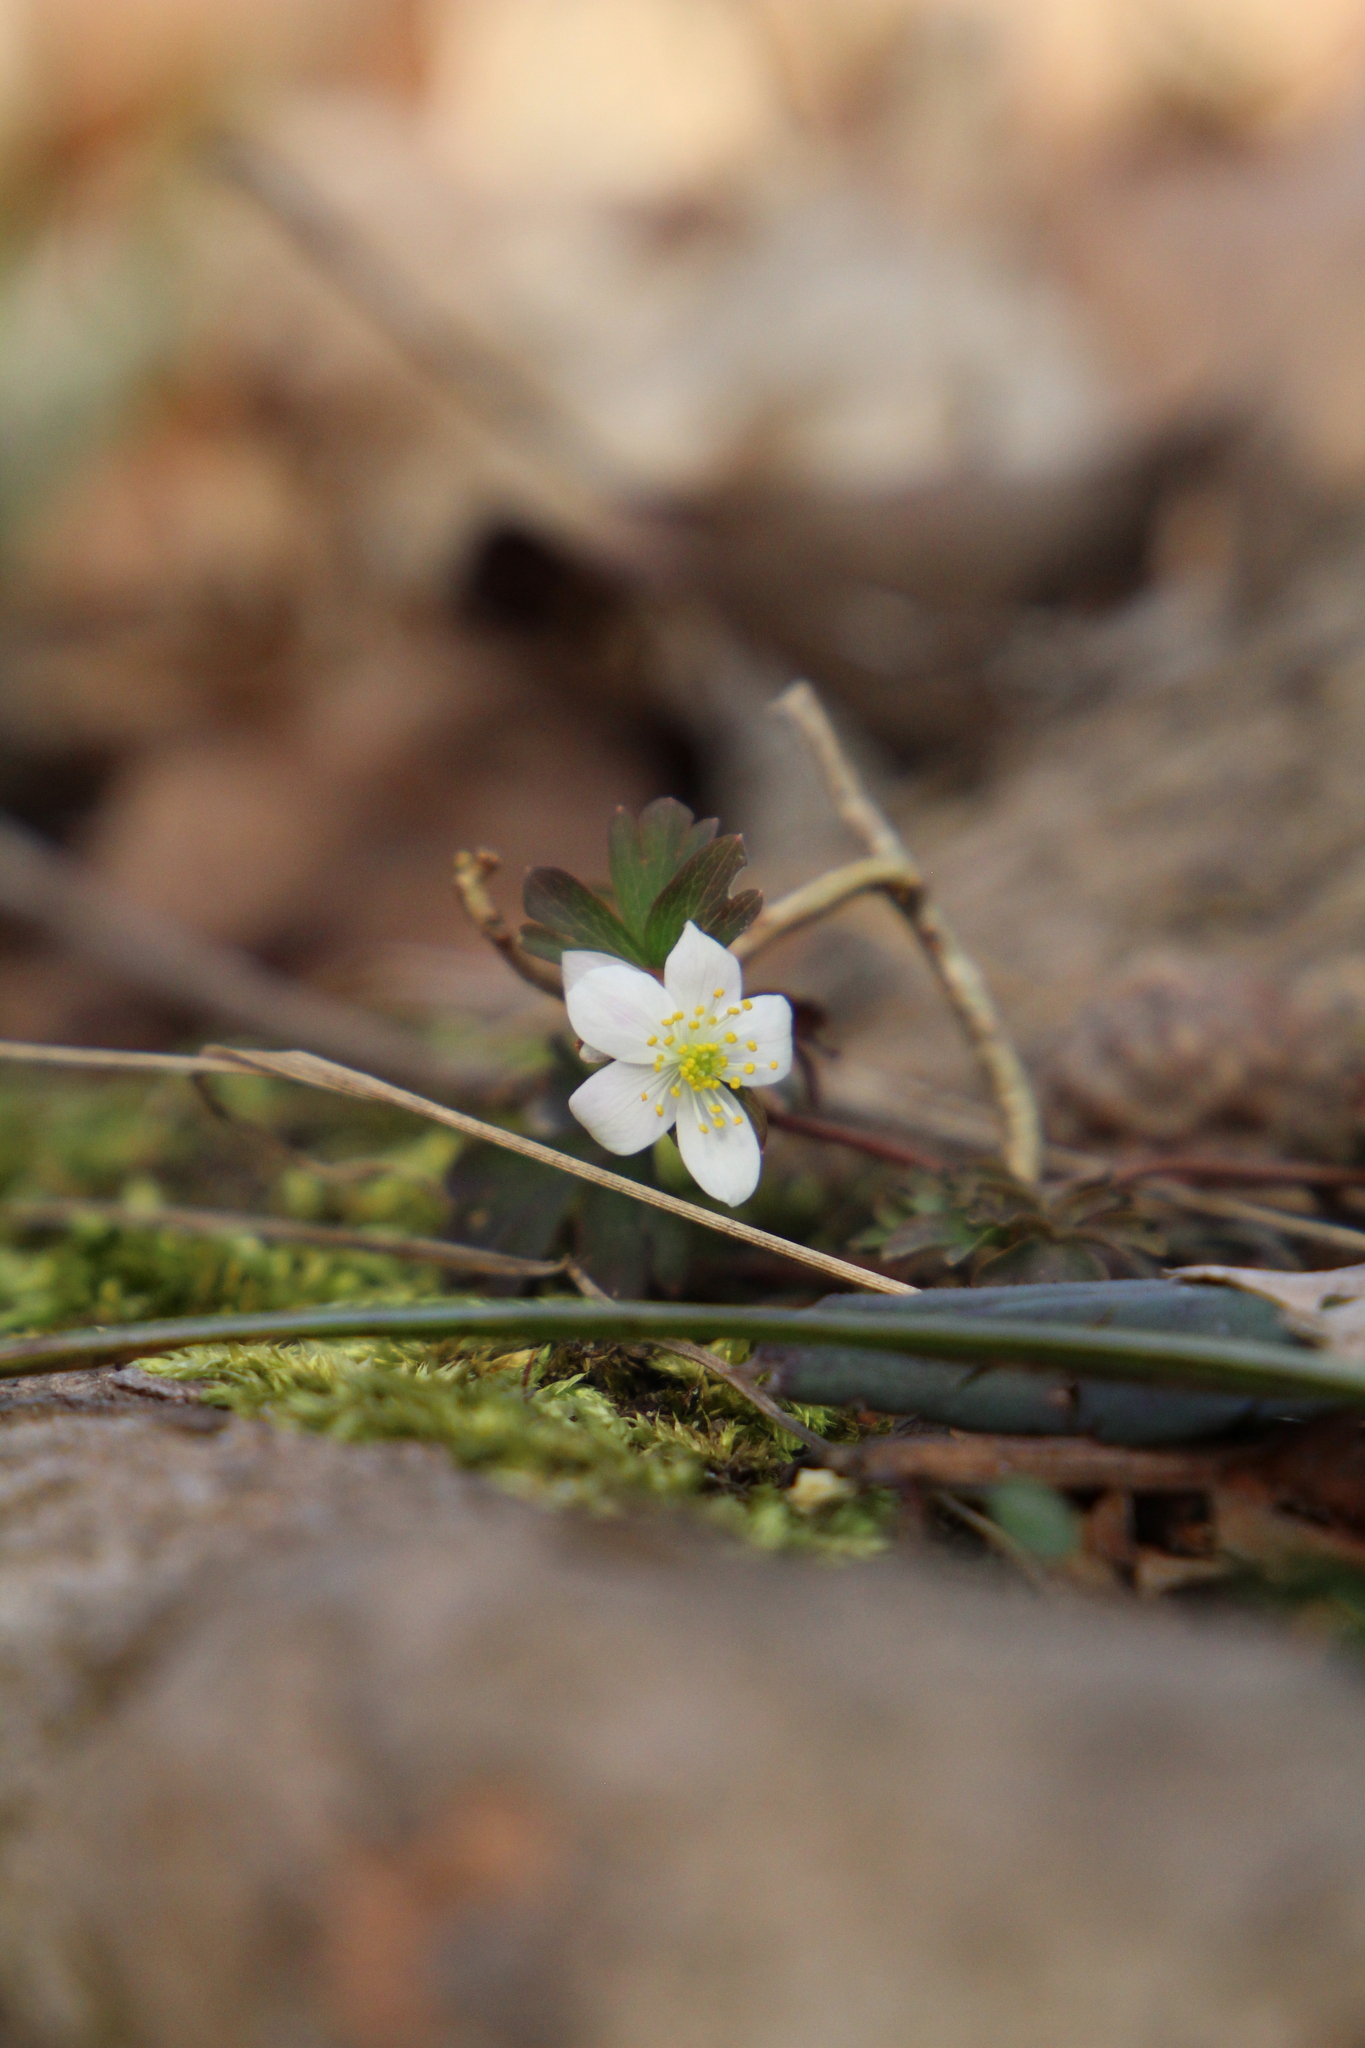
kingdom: Plantae
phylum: Tracheophyta
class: Magnoliopsida
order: Ranunculales
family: Ranunculaceae
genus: Enemion
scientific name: Enemion biternatum
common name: Eastern false rue-anemone
